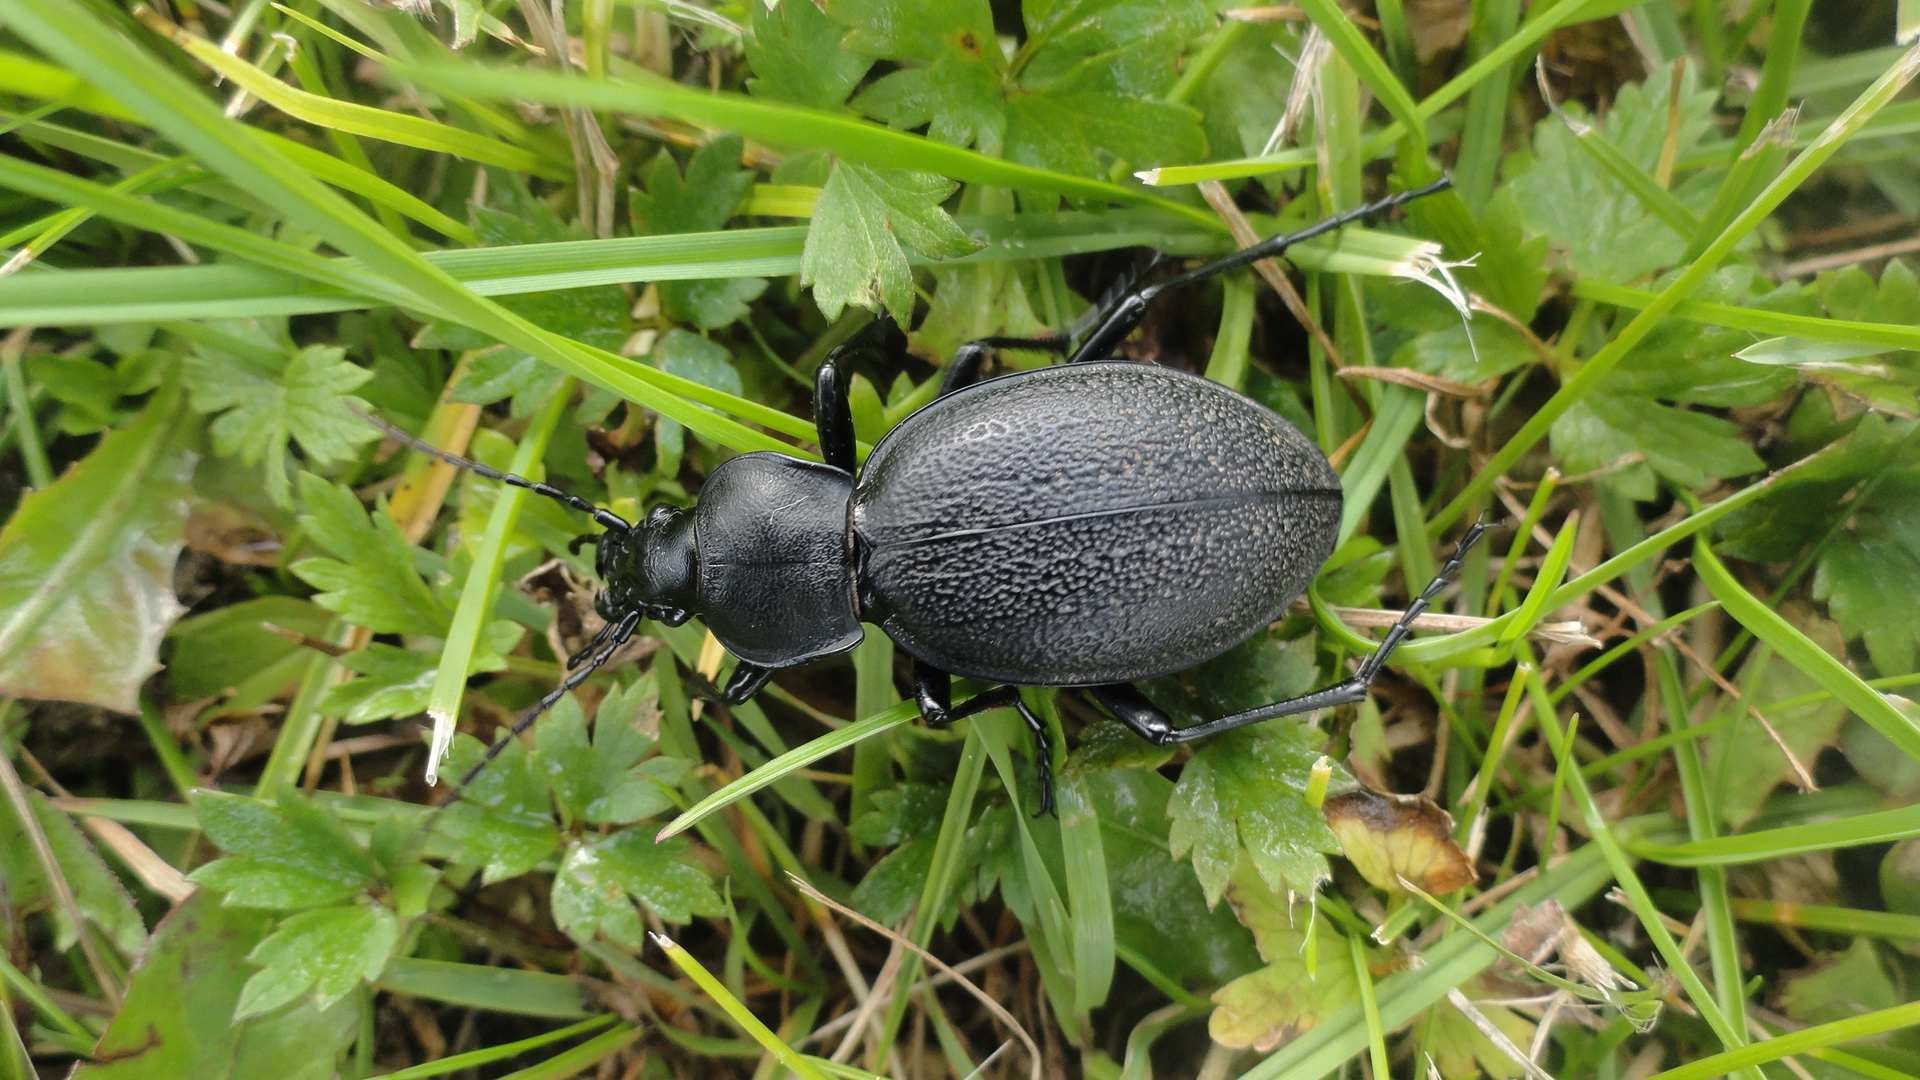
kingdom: Animalia
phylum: Arthropoda
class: Insecta
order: Coleoptera
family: Carabidae
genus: Carabus
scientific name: Carabus coriaceus
